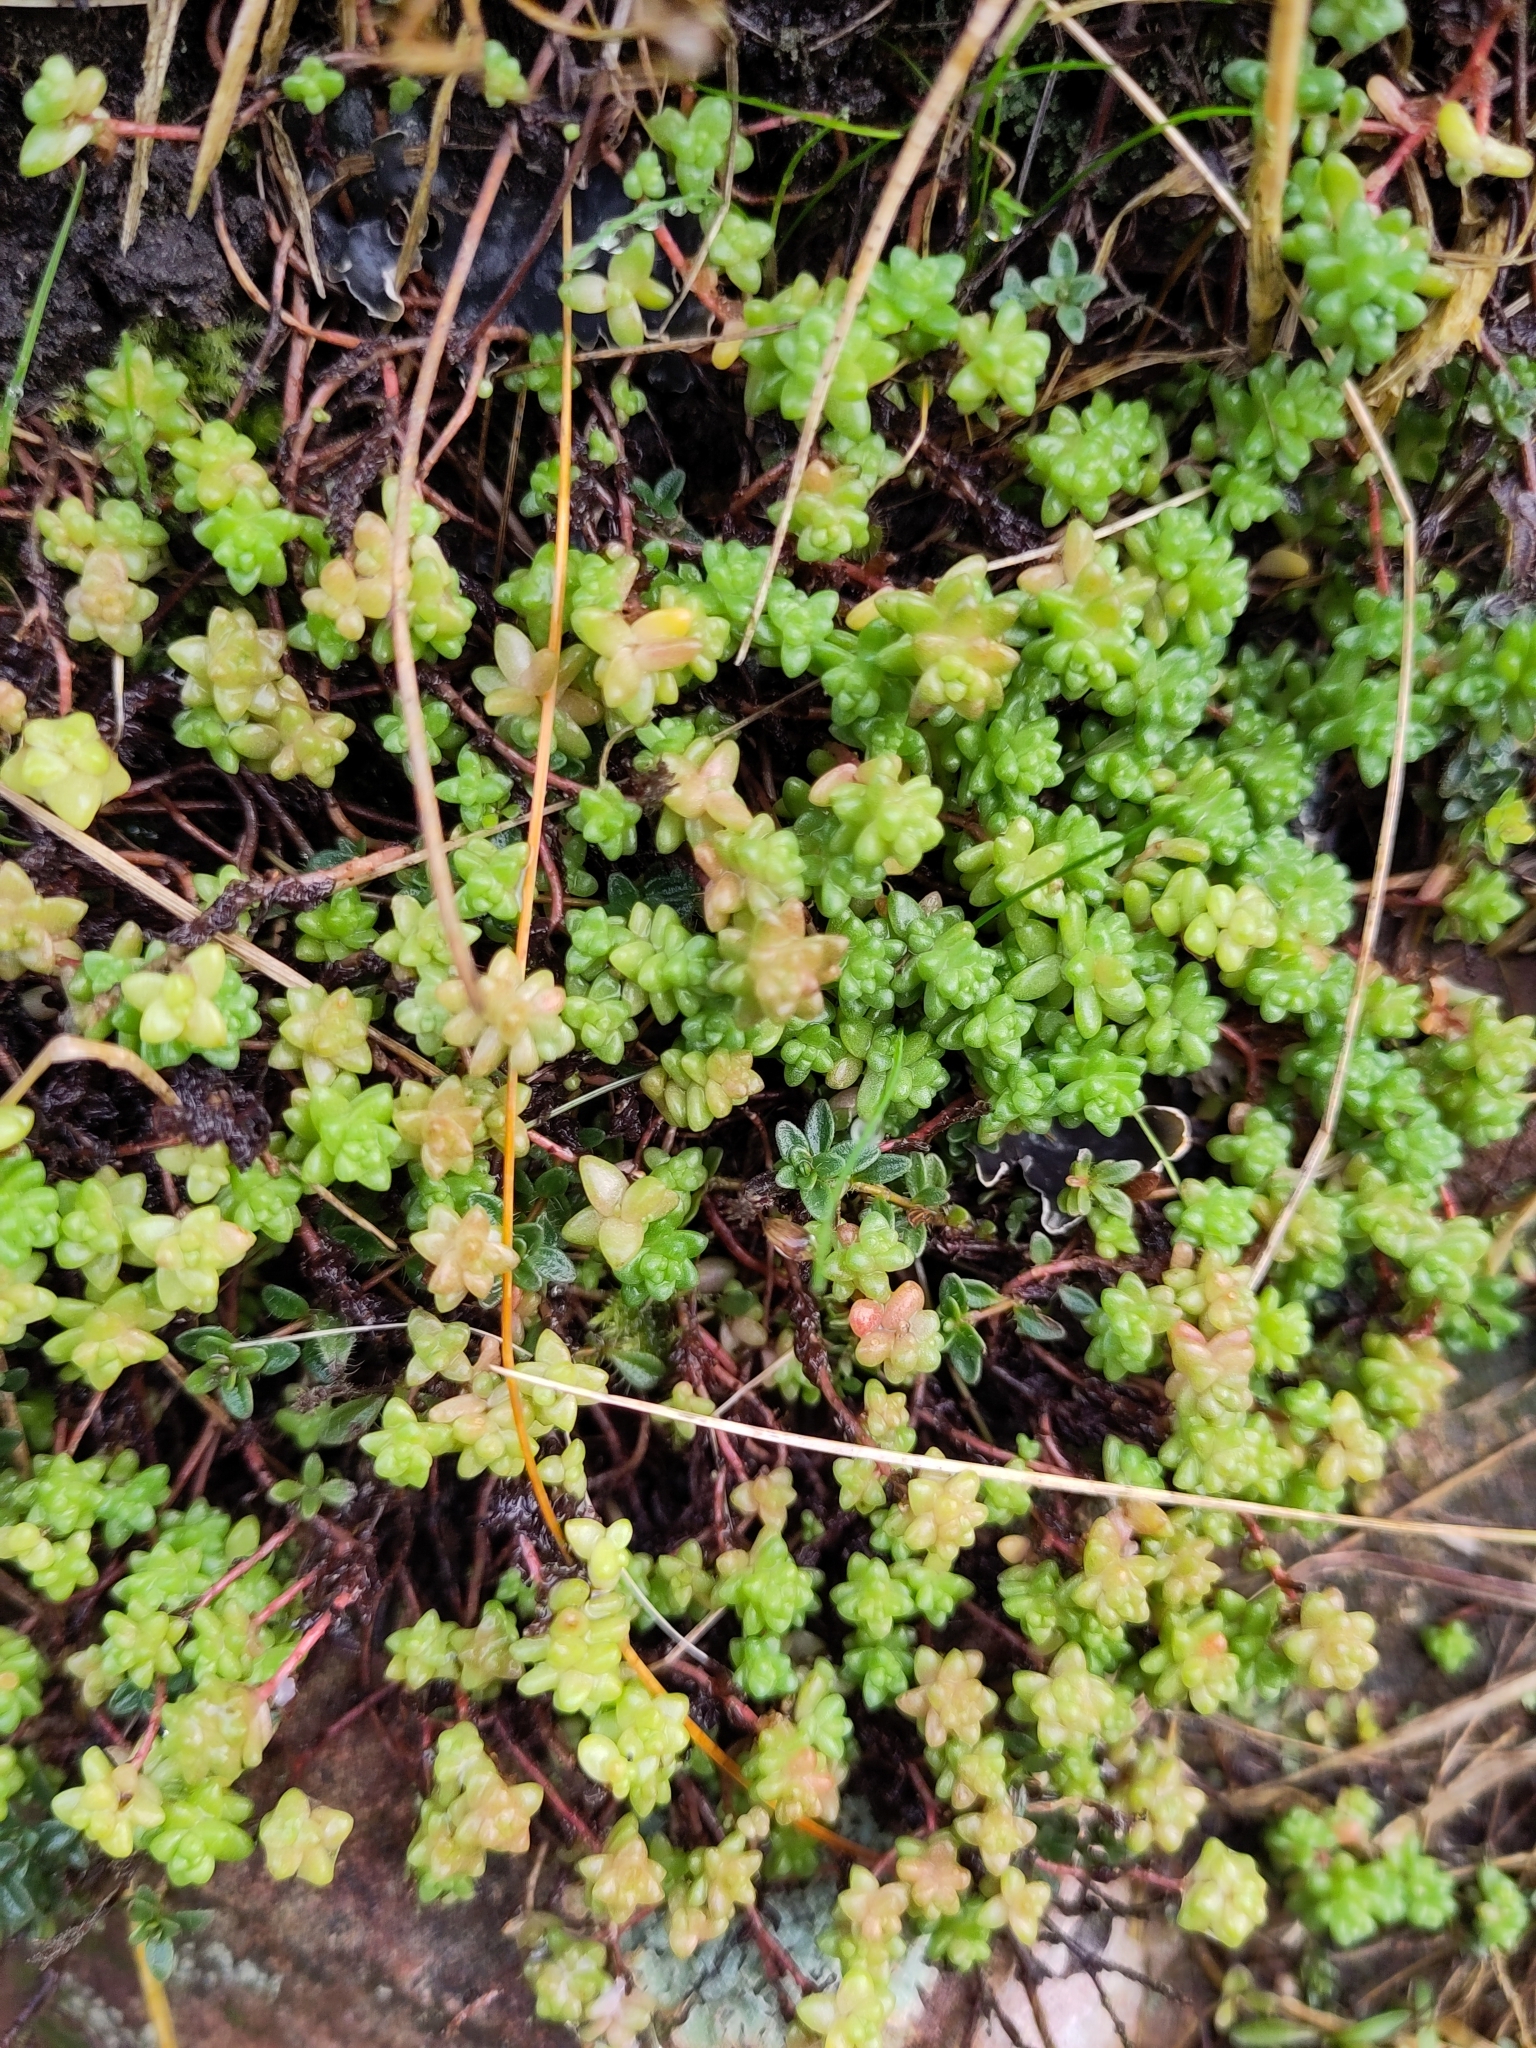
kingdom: Plantae
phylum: Tracheophyta
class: Magnoliopsida
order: Saxifragales
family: Crassulaceae
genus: Sedum
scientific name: Sedum anglicum
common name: English stonecrop
